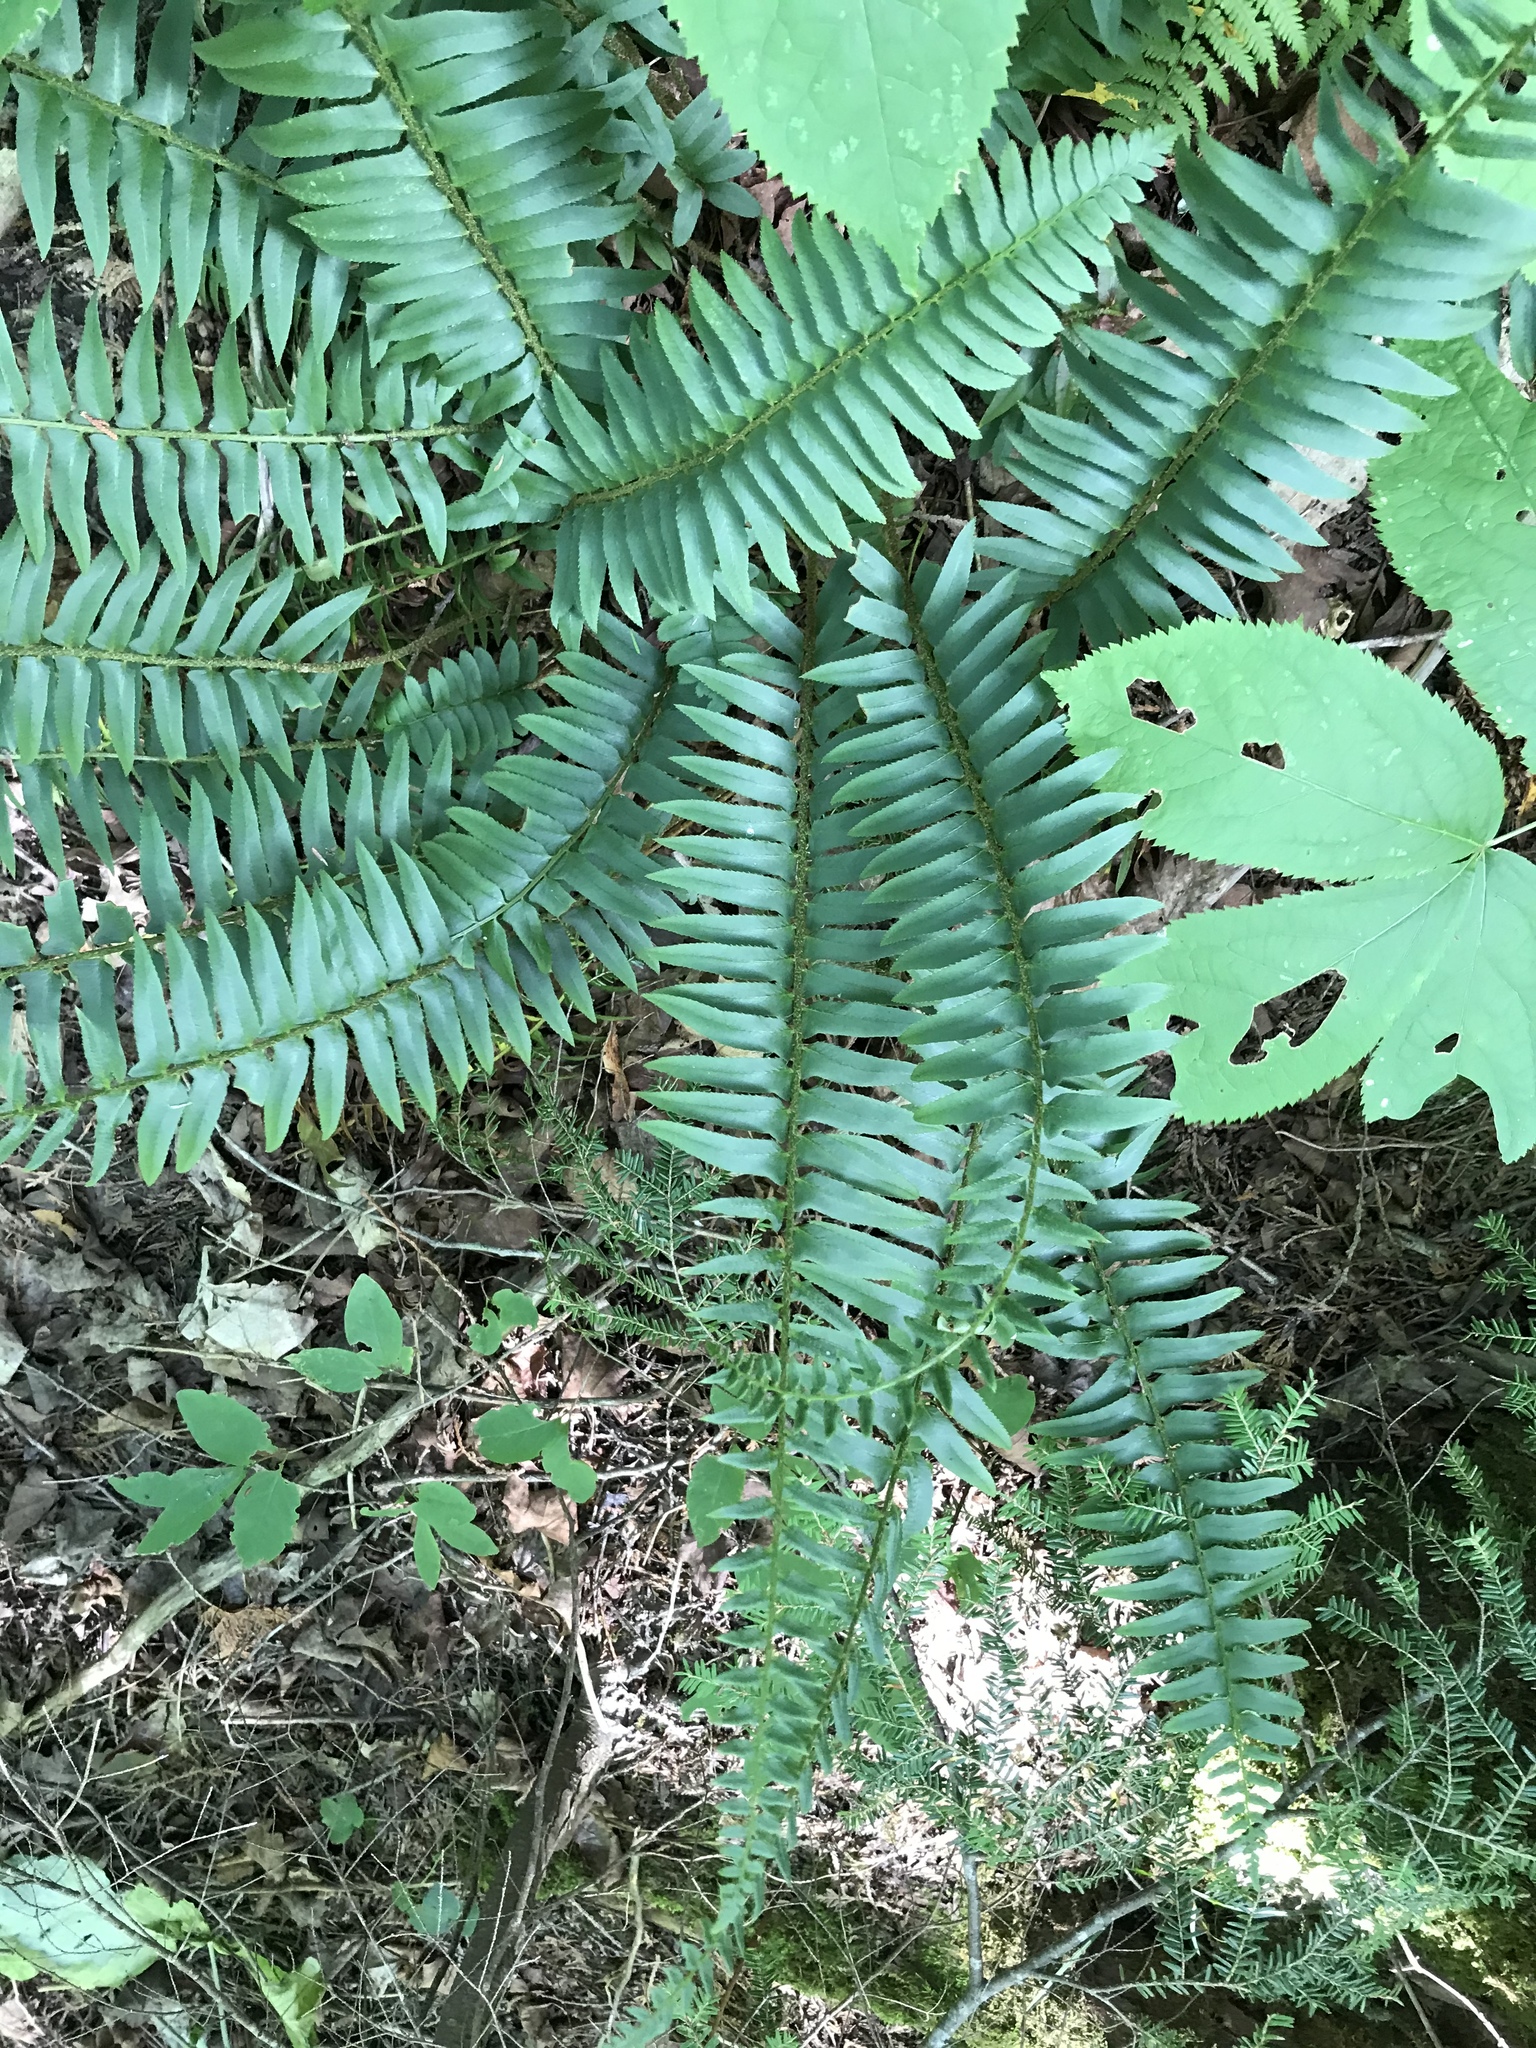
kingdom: Plantae
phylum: Tracheophyta
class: Polypodiopsida
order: Polypodiales
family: Dryopteridaceae
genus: Polystichum
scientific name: Polystichum acrostichoides
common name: Christmas fern
